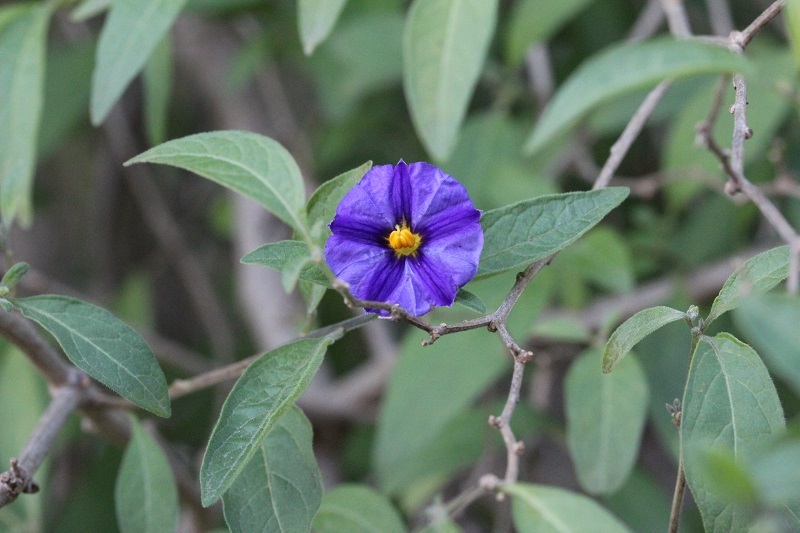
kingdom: Plantae
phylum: Tracheophyta
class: Magnoliopsida
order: Solanales
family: Solanaceae
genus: Lycianthes
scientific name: Lycianthes rantonnetii
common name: Blue potatobush
